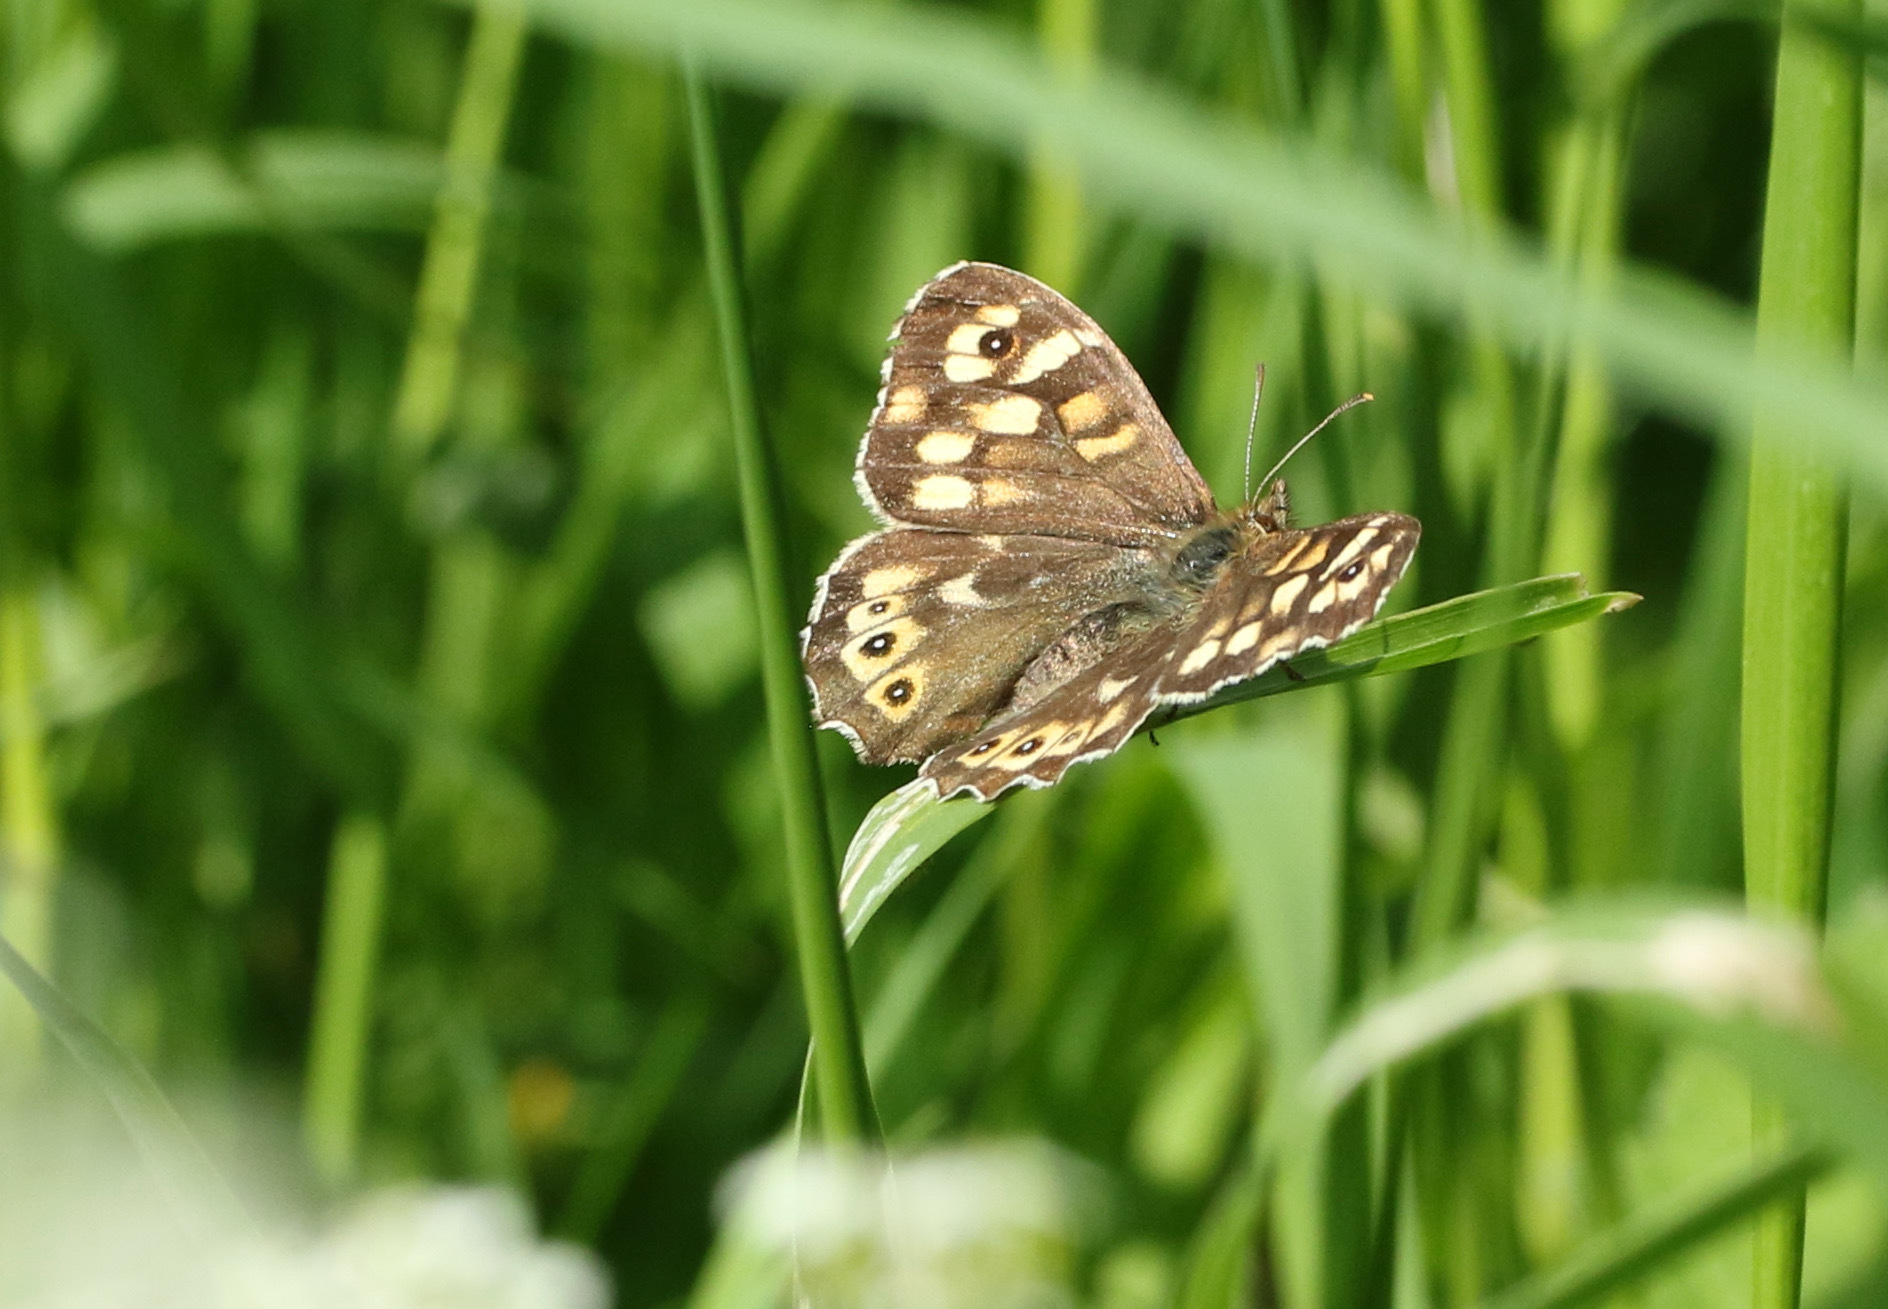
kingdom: Animalia
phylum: Arthropoda
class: Insecta
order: Lepidoptera
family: Nymphalidae
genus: Pararge
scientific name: Pararge aegeria
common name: Speckled wood
